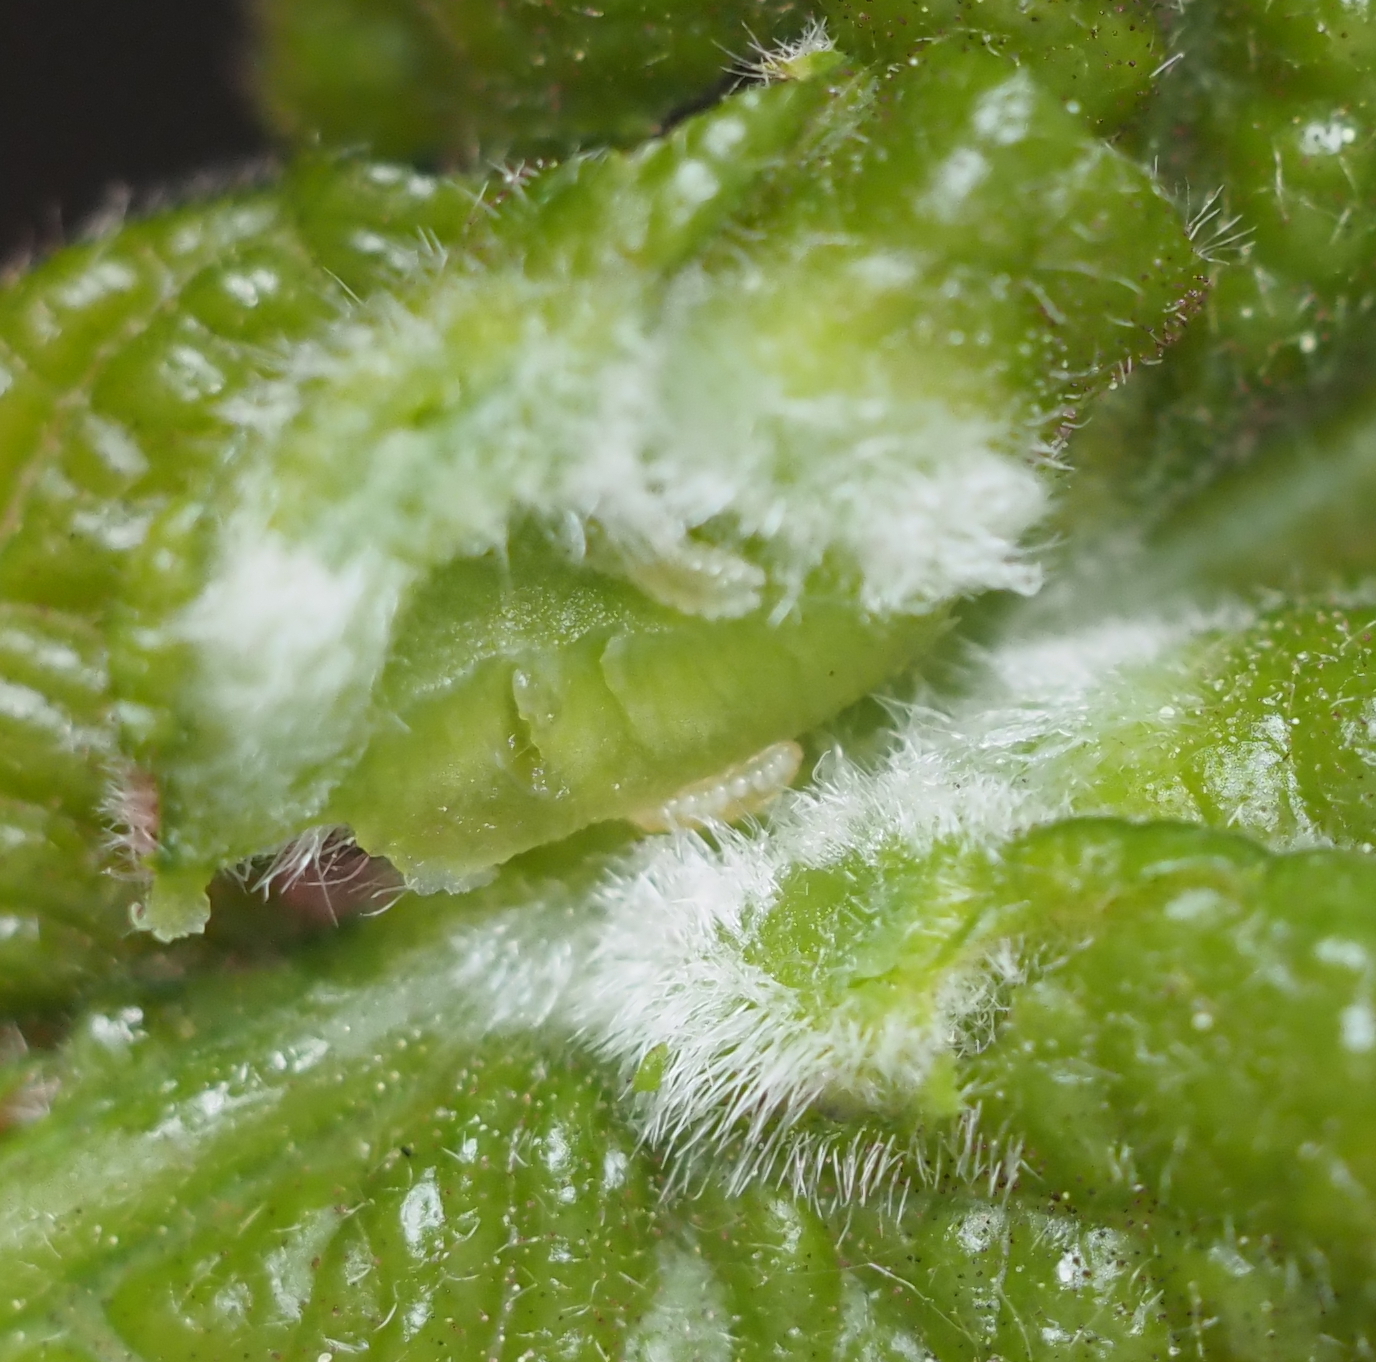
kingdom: Animalia
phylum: Arthropoda
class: Insecta
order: Diptera
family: Cecidomyiidae
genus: Macrodiplosis
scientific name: Macrodiplosis niveipila
